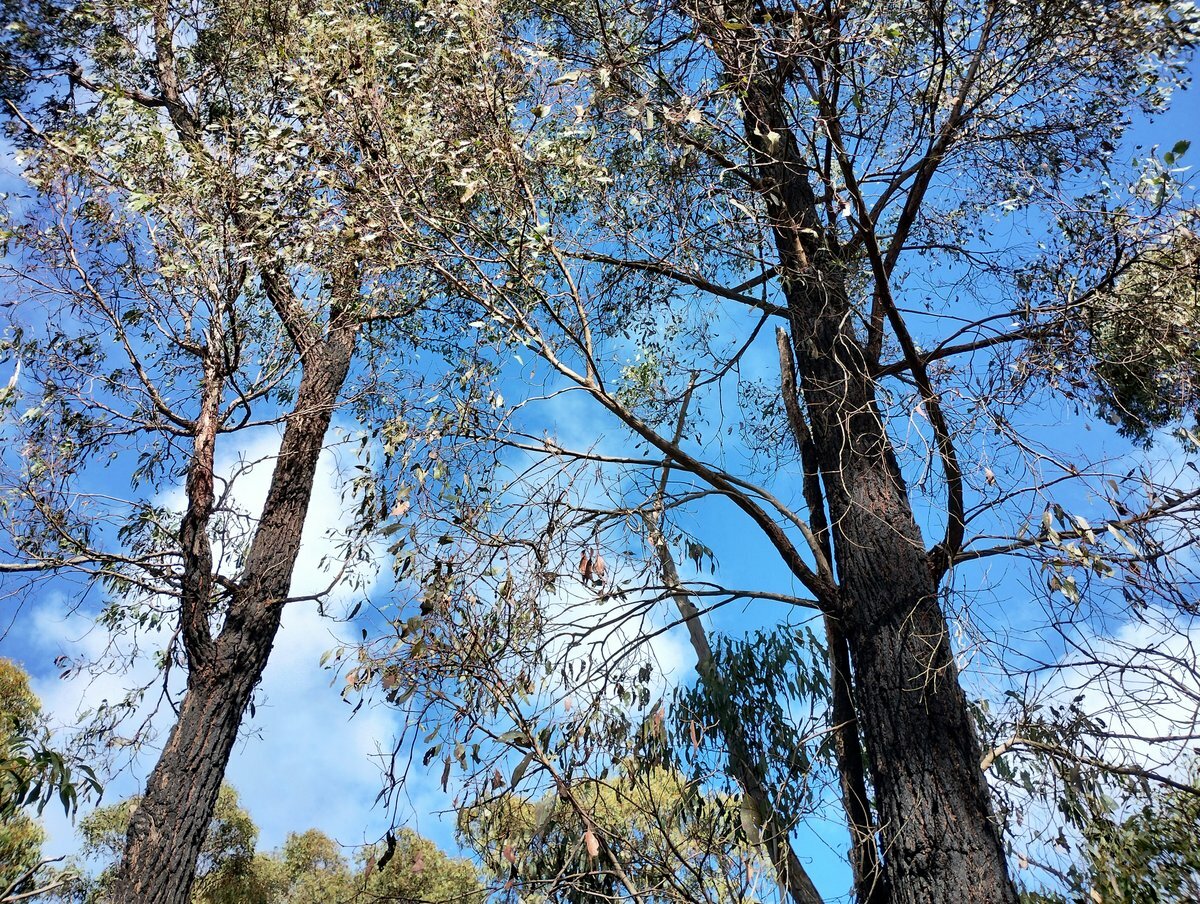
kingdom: Plantae
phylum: Tracheophyta
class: Magnoliopsida
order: Myrtales
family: Myrtaceae
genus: Eucalyptus
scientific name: Eucalyptus tricarpa
